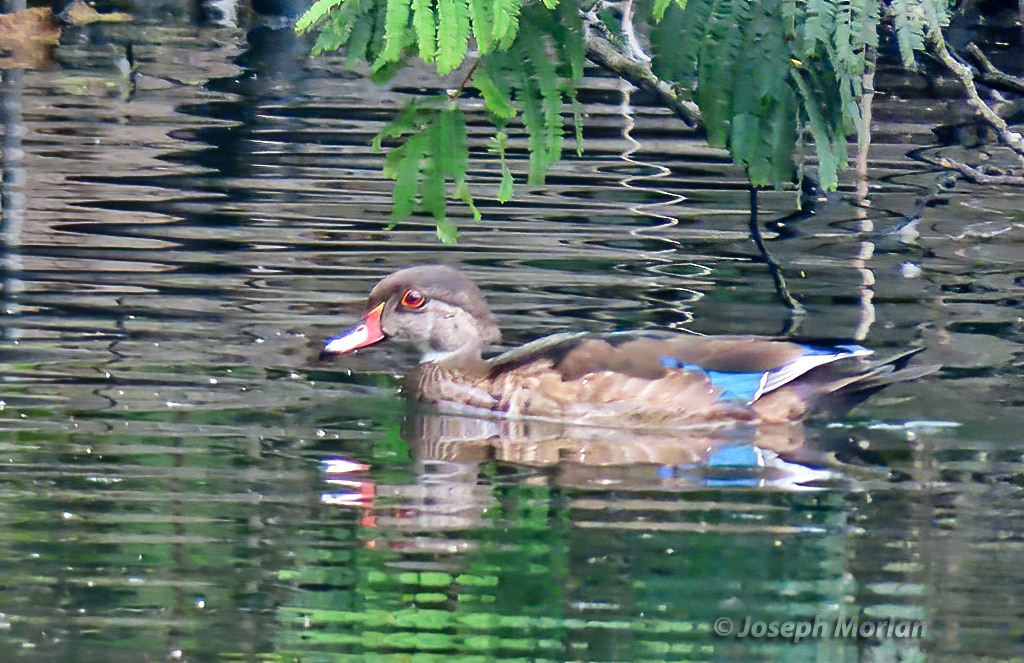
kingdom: Animalia
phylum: Chordata
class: Aves
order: Anseriformes
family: Anatidae
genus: Aix
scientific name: Aix sponsa
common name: Wood duck
